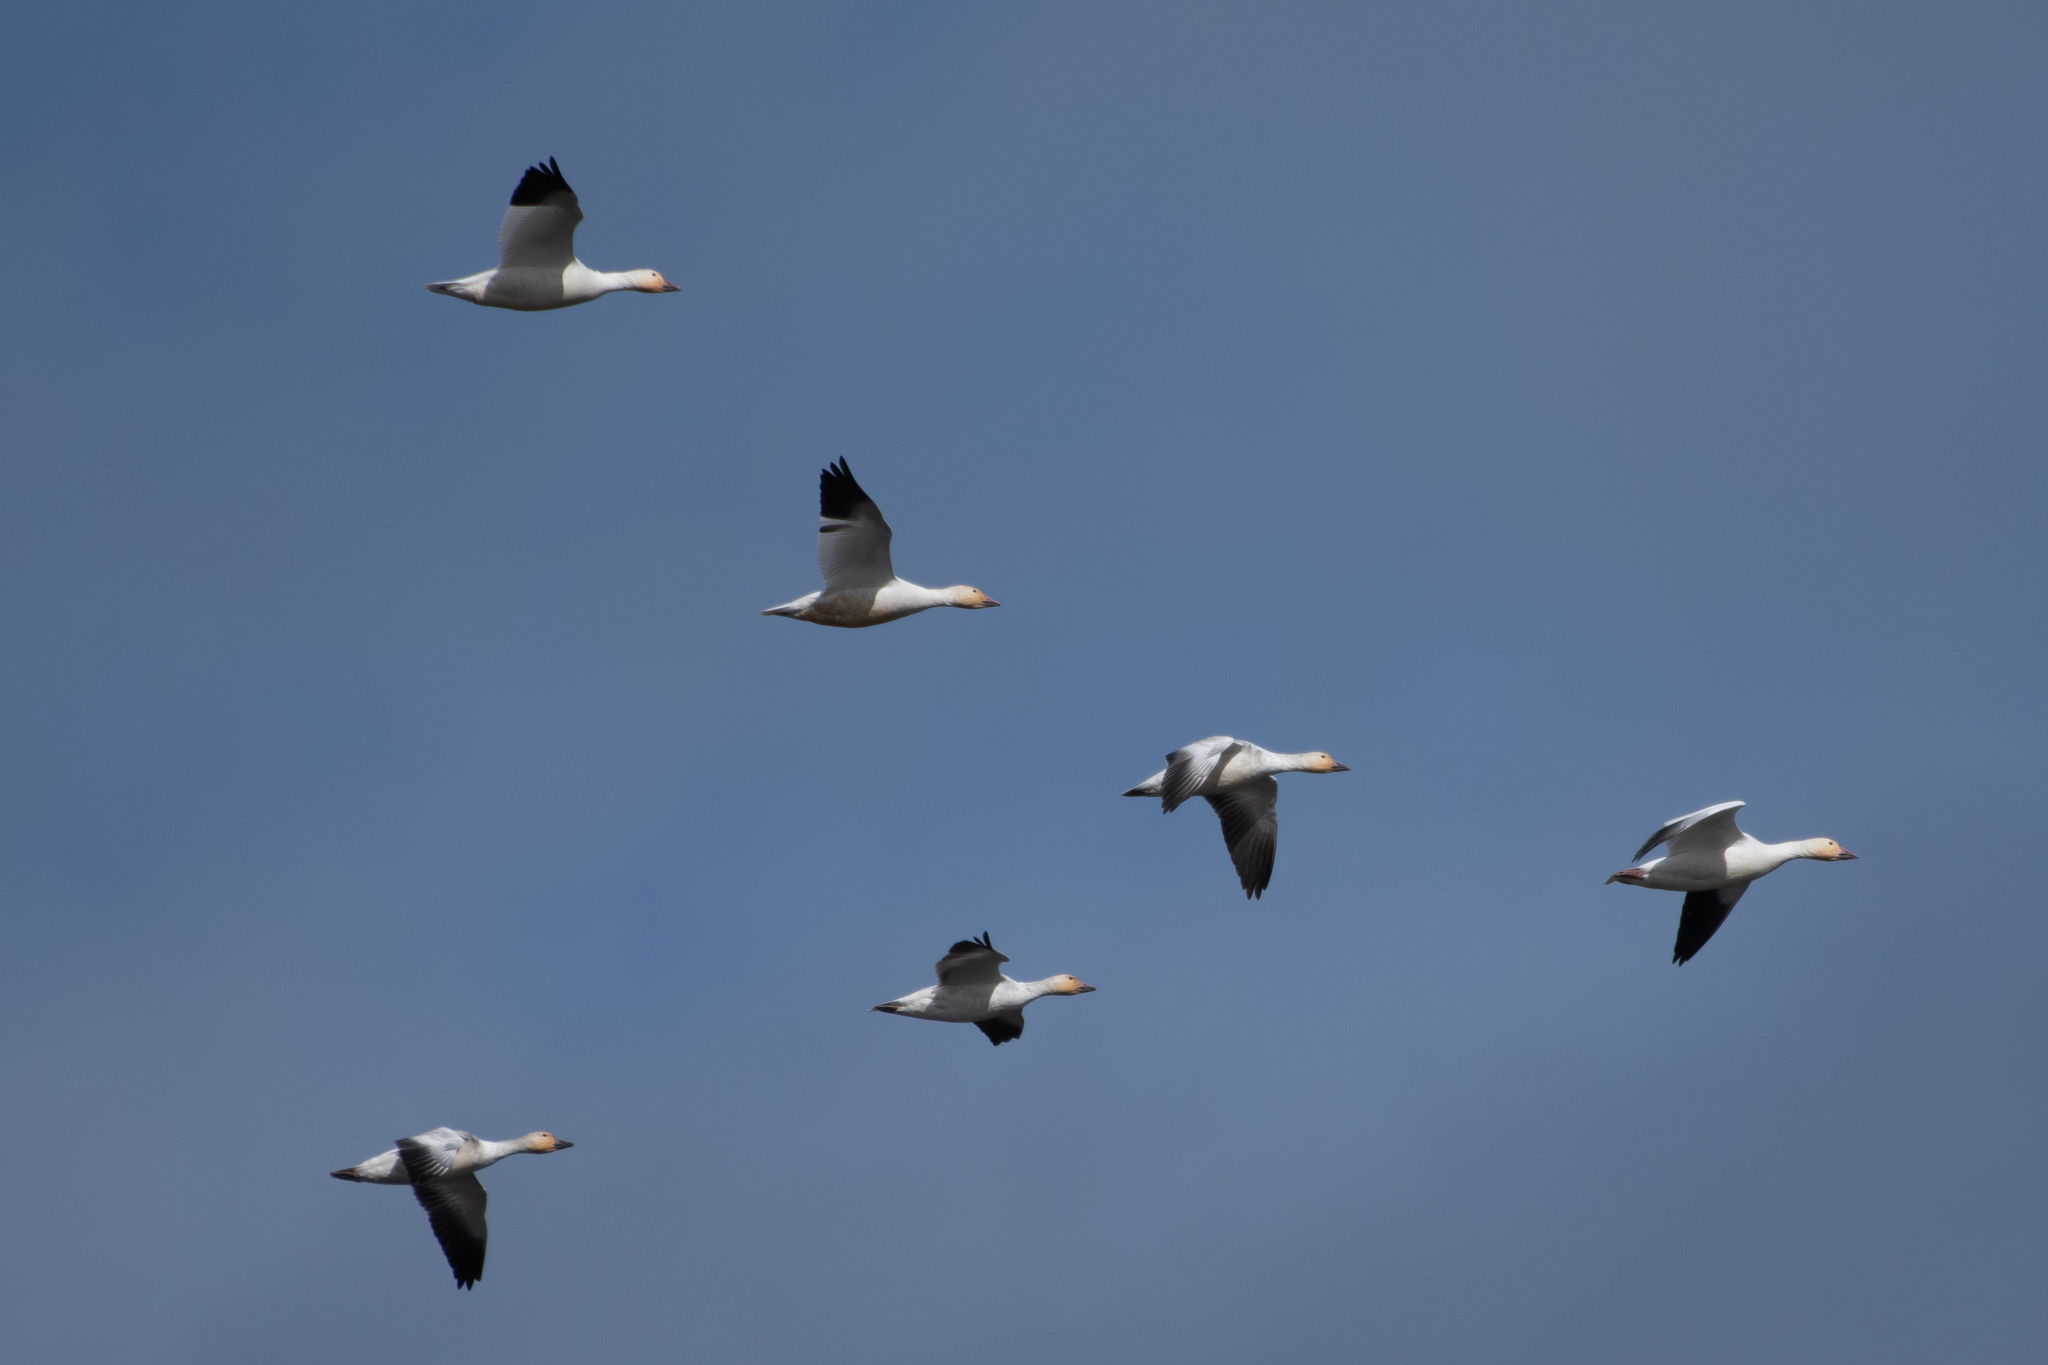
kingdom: Animalia
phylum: Chordata
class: Aves
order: Anseriformes
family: Anatidae
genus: Anser
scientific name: Anser caerulescens
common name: Snow goose
